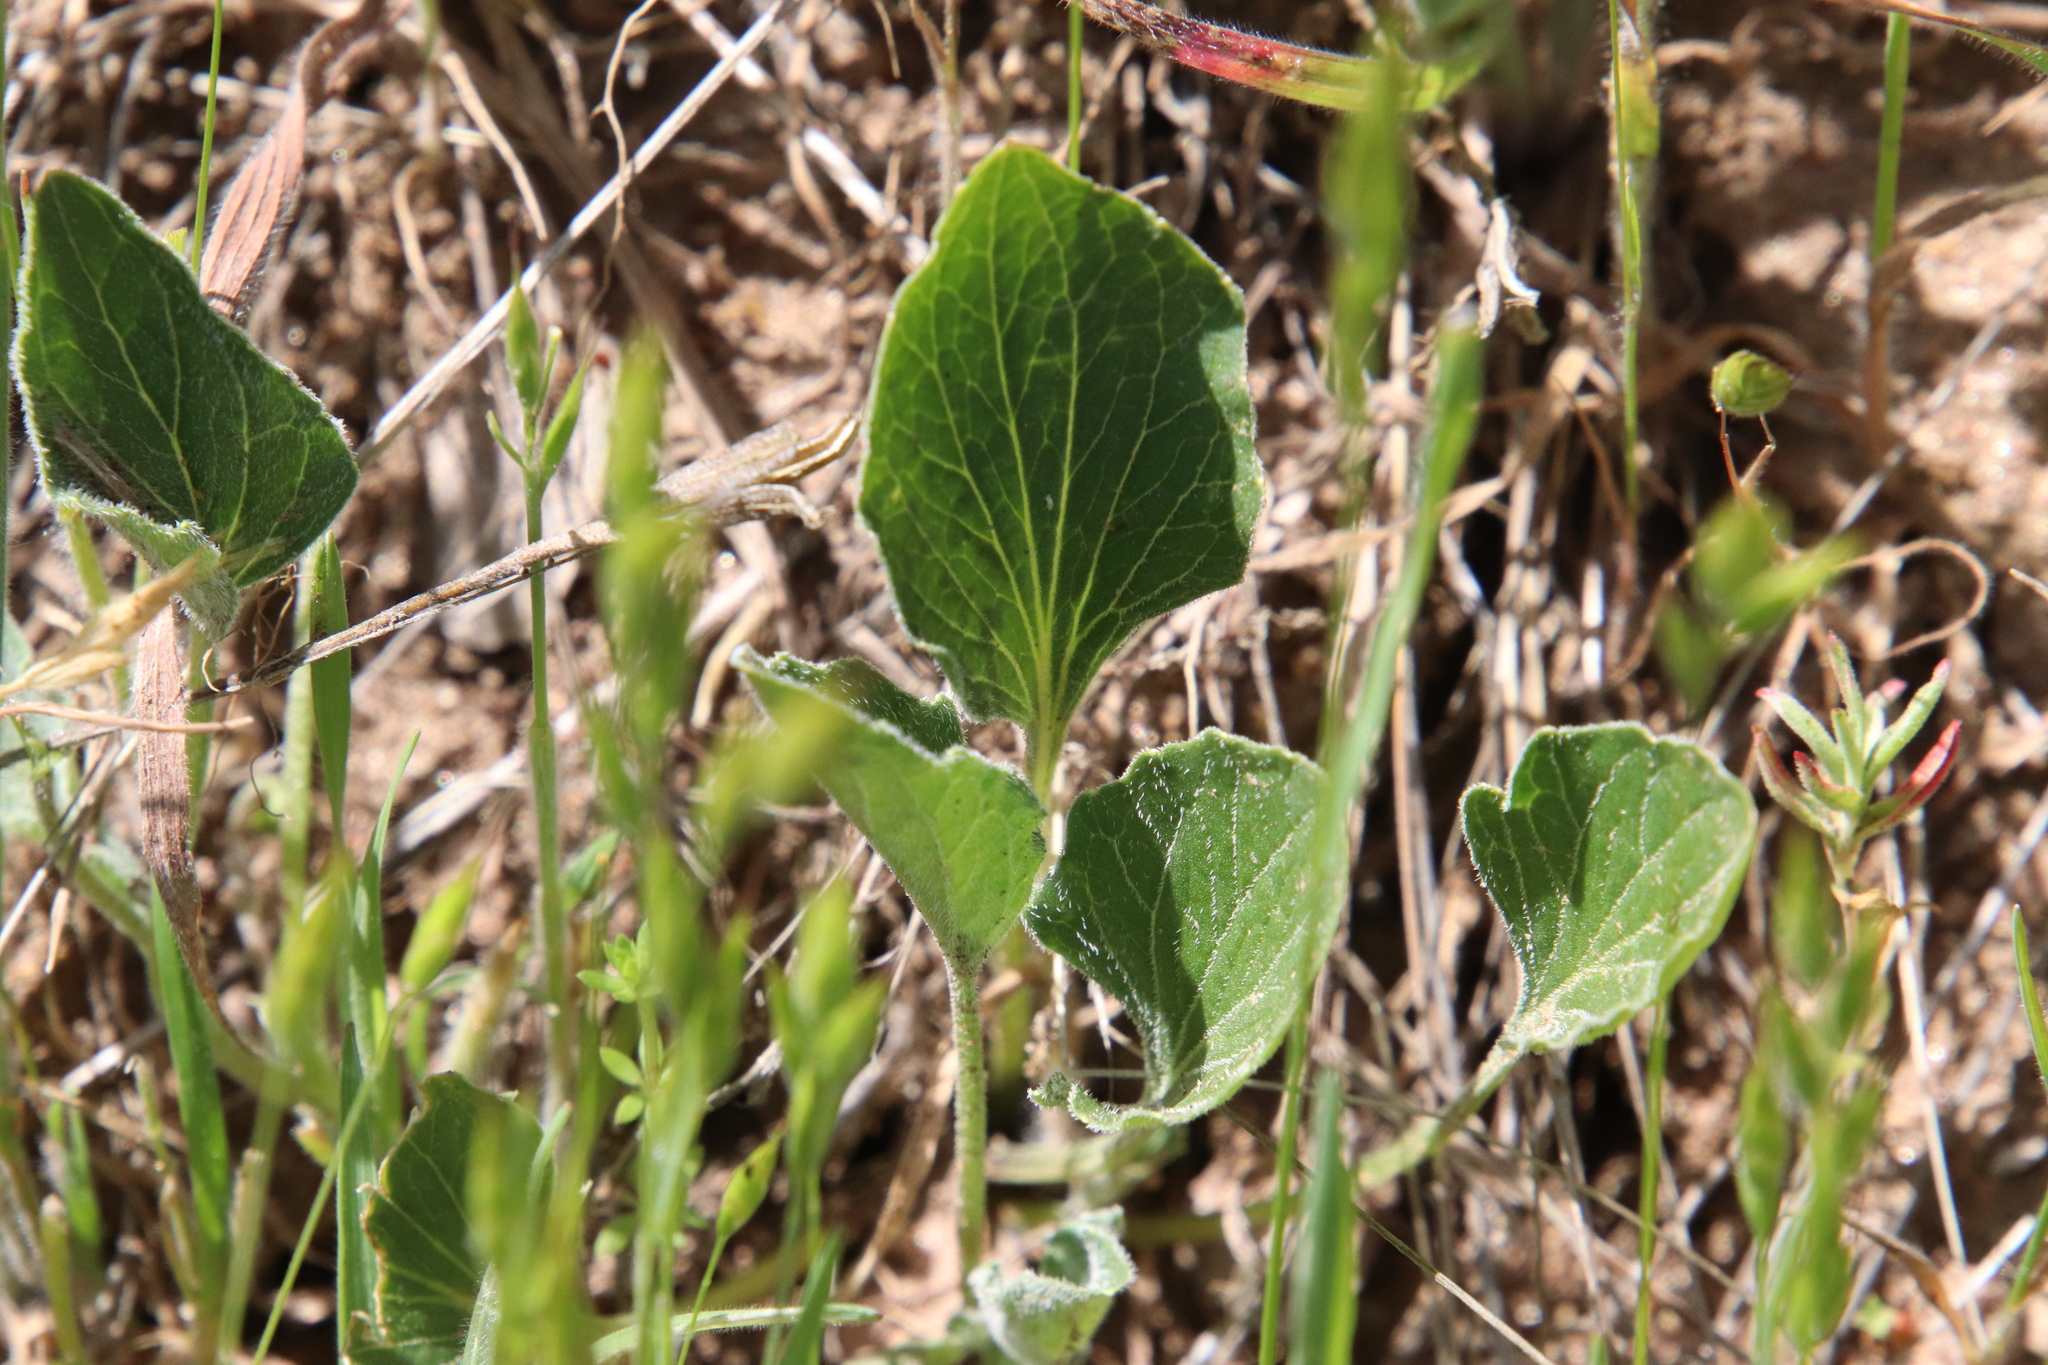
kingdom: Plantae
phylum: Tracheophyta
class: Magnoliopsida
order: Malpighiales
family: Violaceae
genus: Viola
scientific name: Viola purpurea
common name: Pine violet
